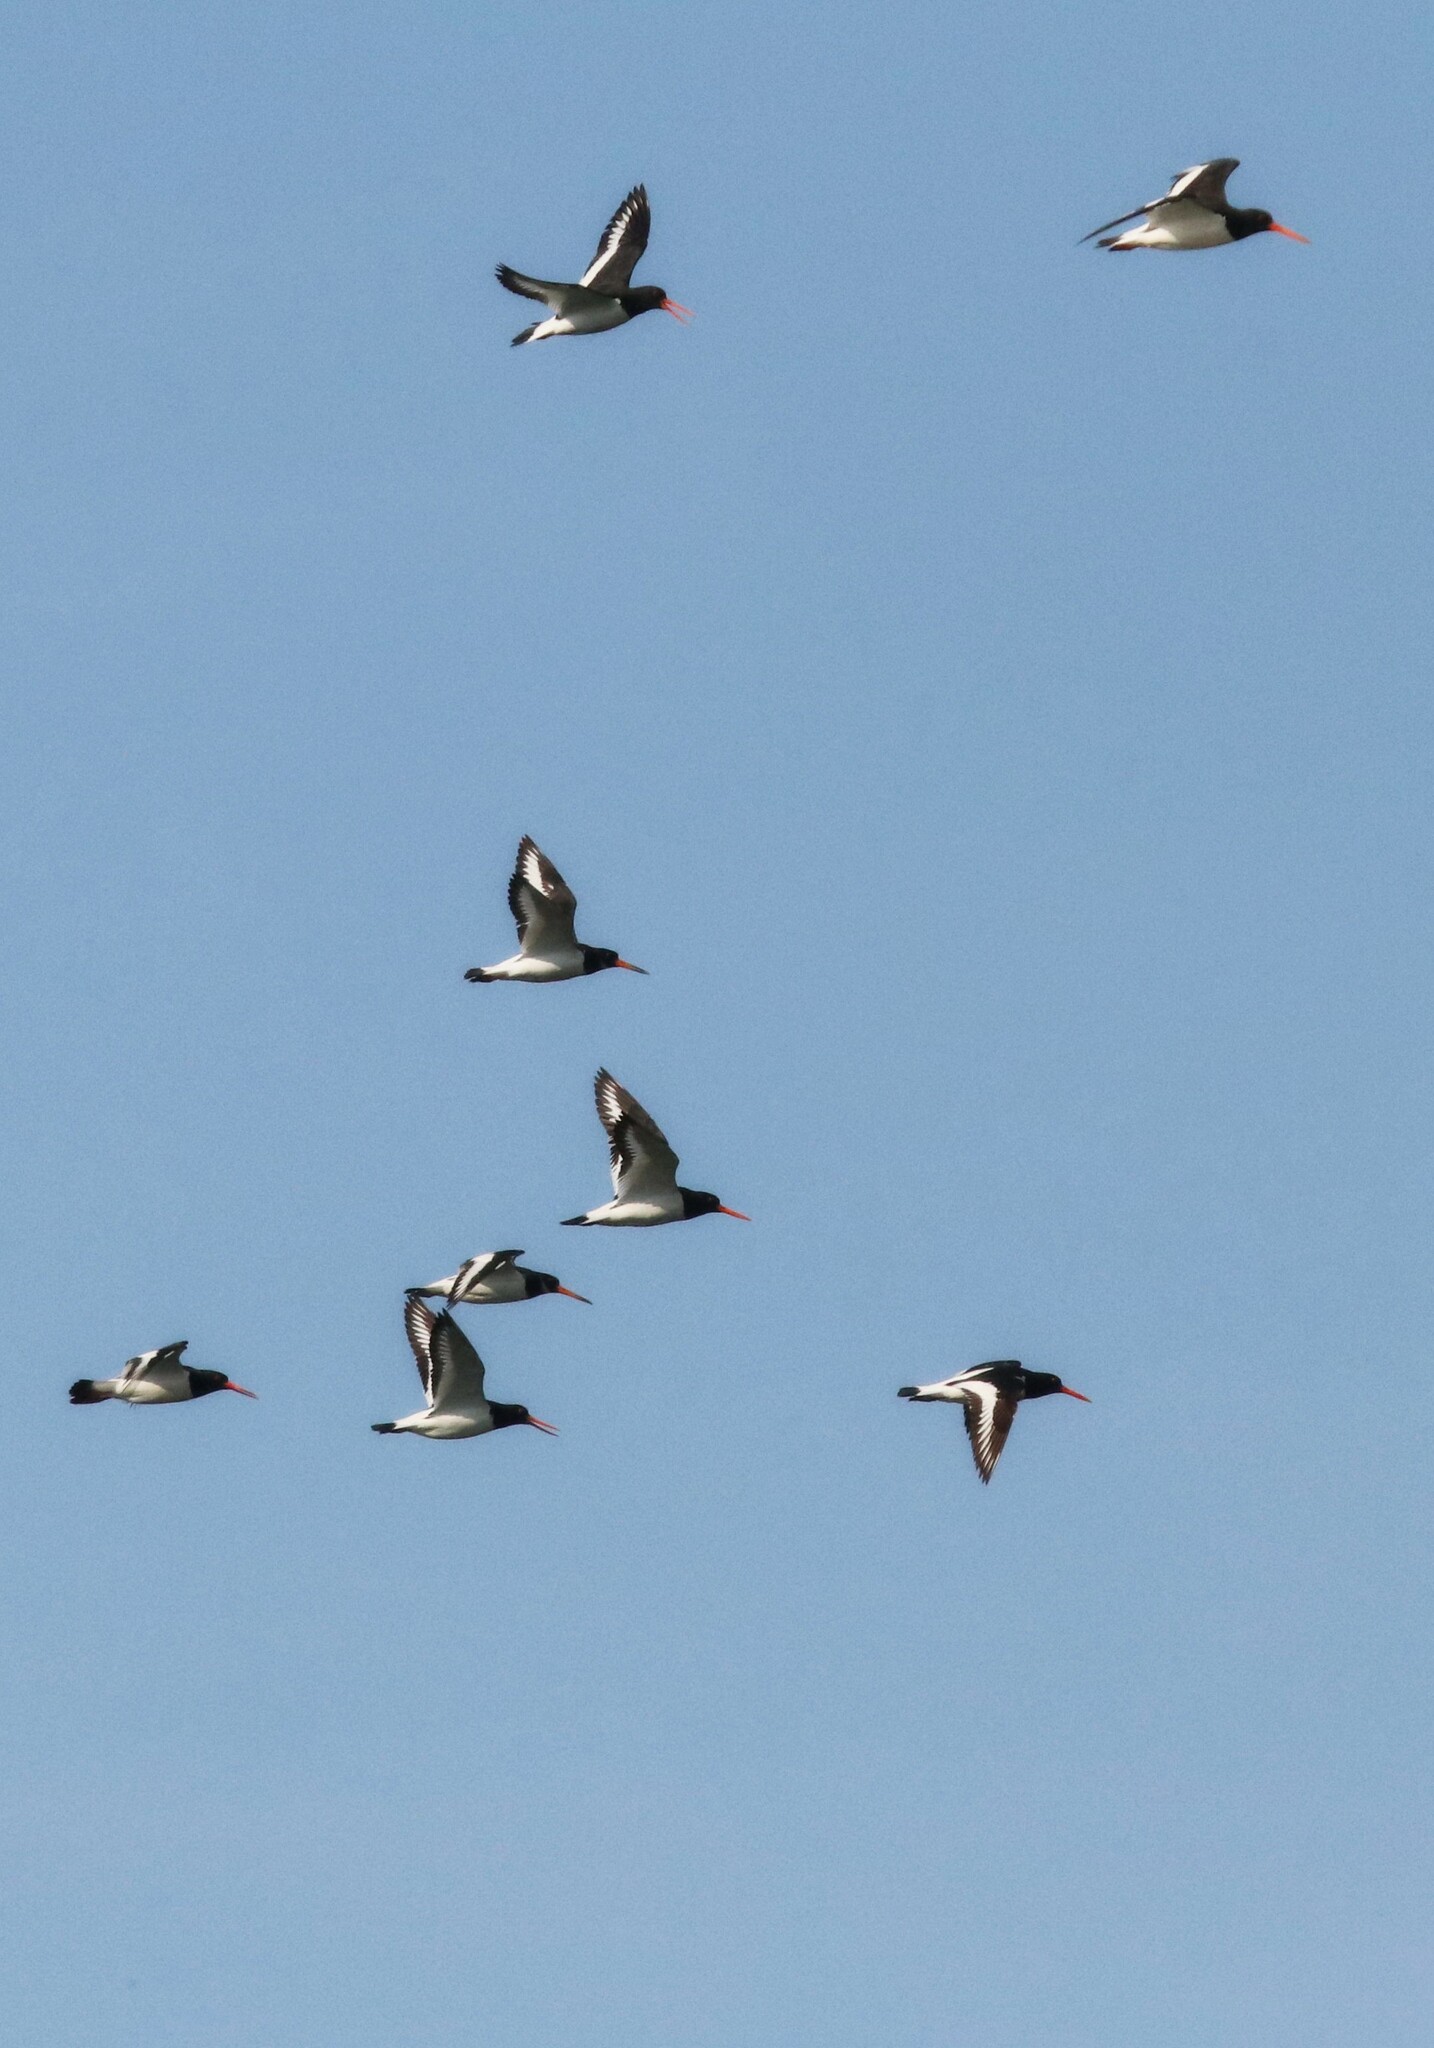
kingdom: Animalia
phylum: Chordata
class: Aves
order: Charadriiformes
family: Haematopodidae
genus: Haematopus
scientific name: Haematopus ostralegus
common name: Eurasian oystercatcher
